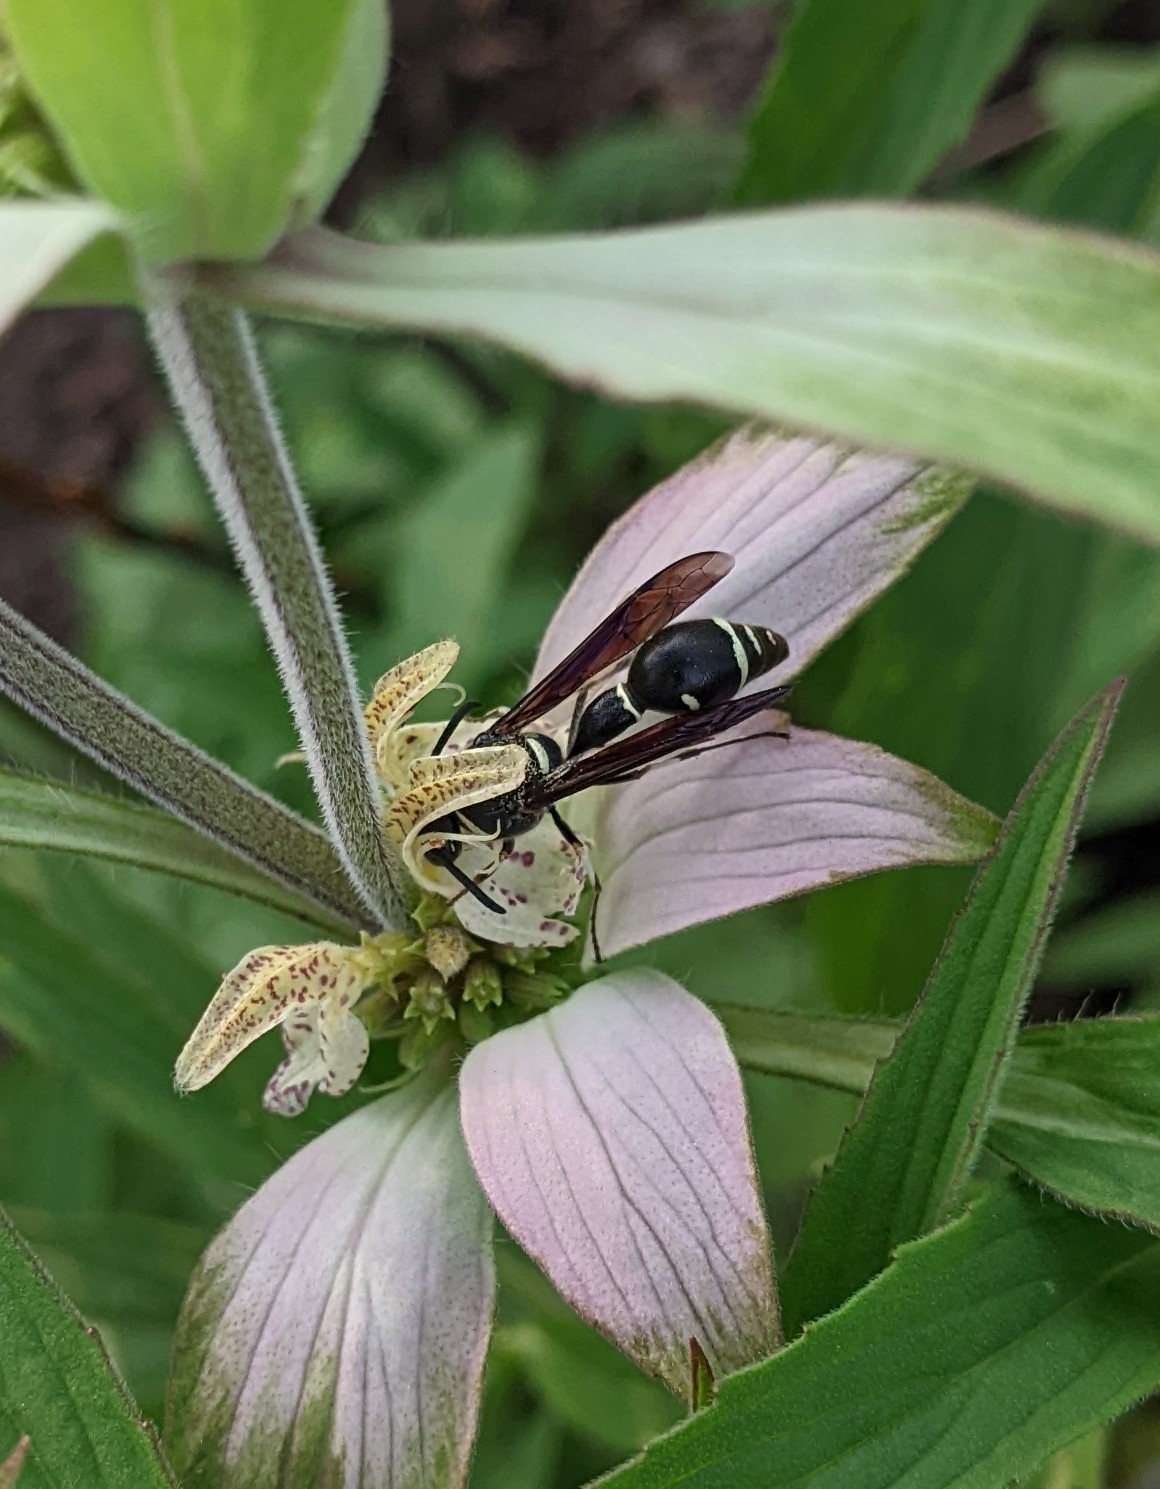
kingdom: Animalia
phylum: Arthropoda
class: Insecta
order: Hymenoptera
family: Vespidae
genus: Eumenes
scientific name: Eumenes fraternus
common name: Fraternal potter wasp
